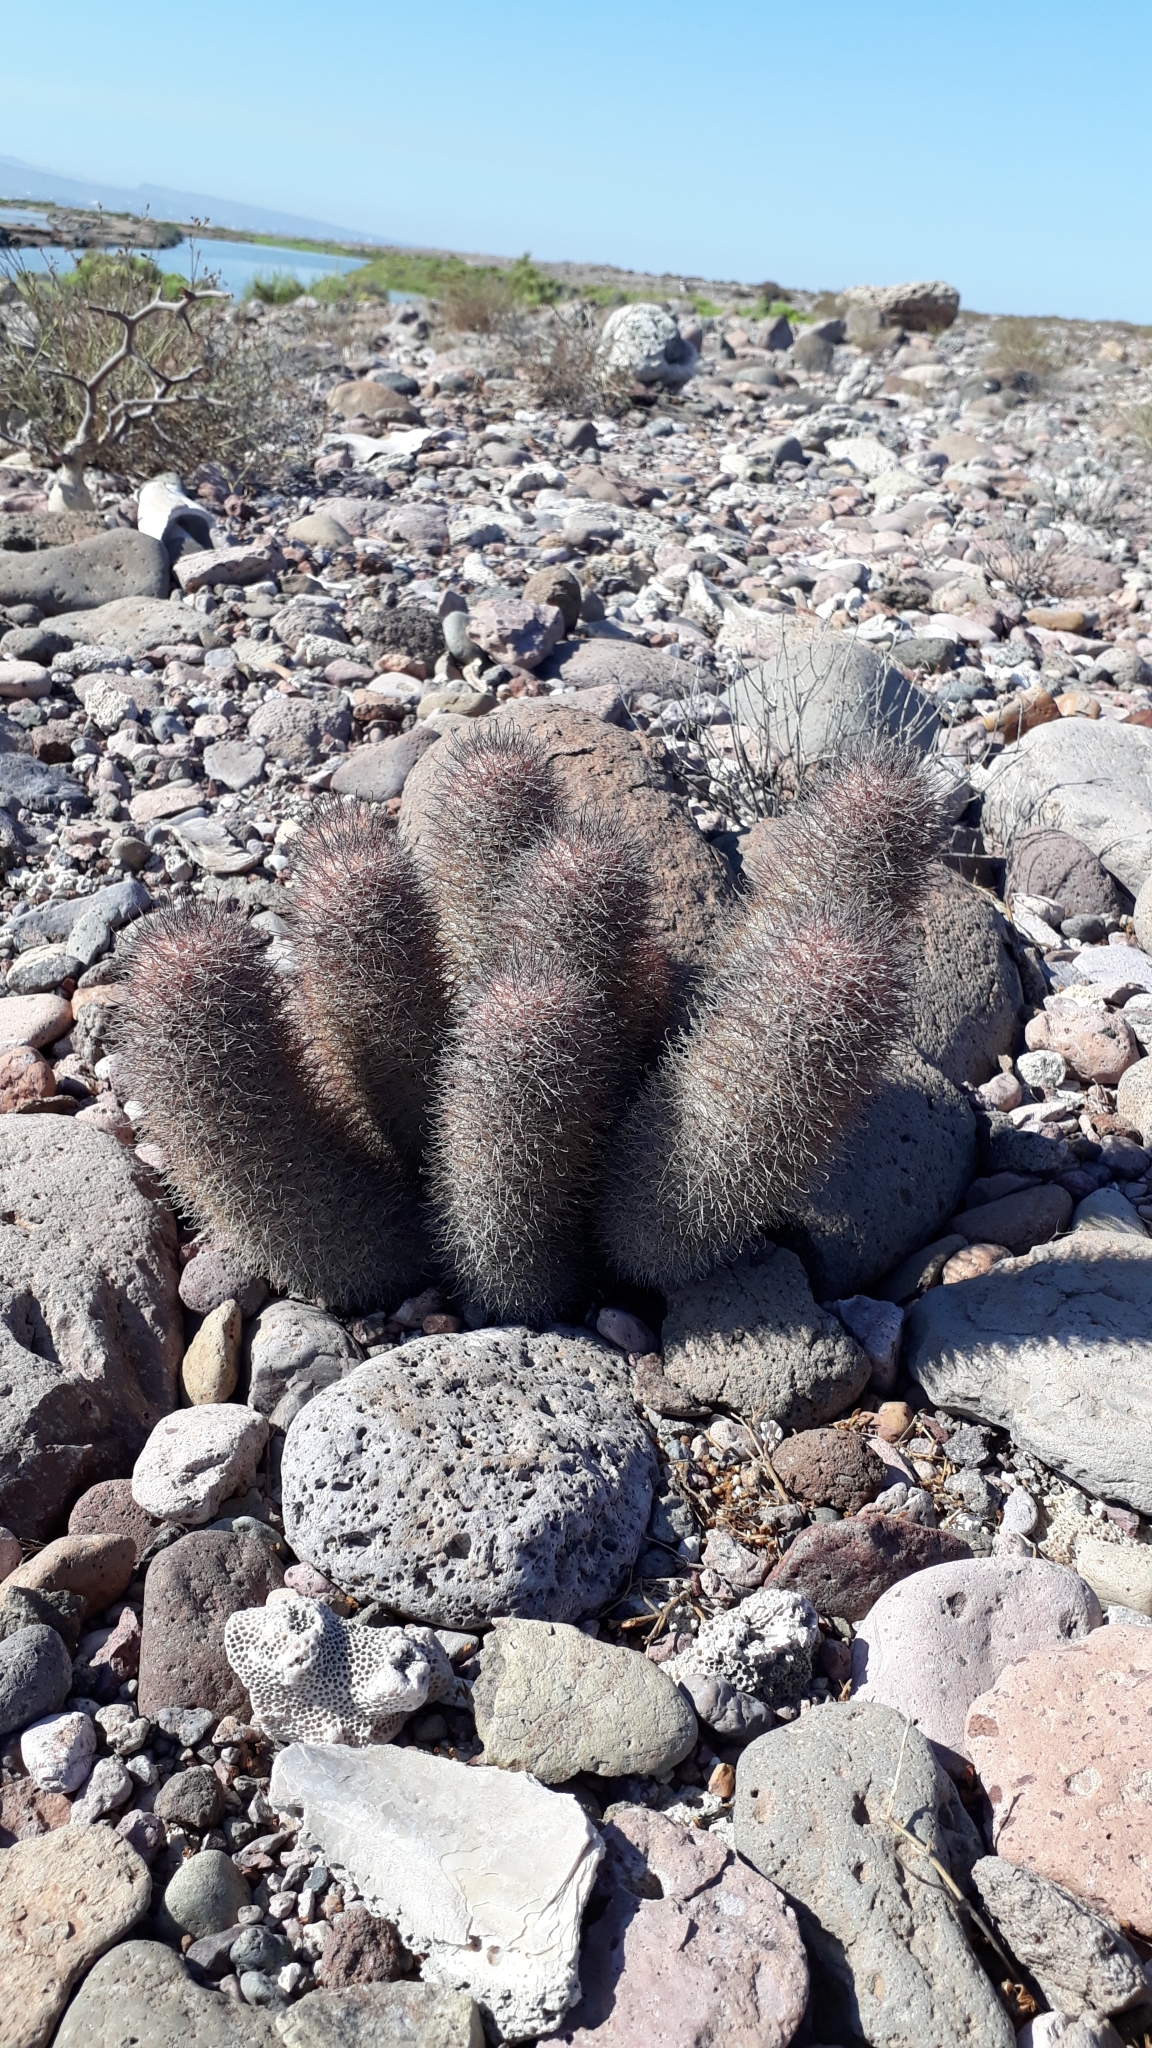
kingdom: Plantae
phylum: Tracheophyta
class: Magnoliopsida
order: Caryophyllales
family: Cactaceae
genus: Cochemiea
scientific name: Cochemiea fraileana
